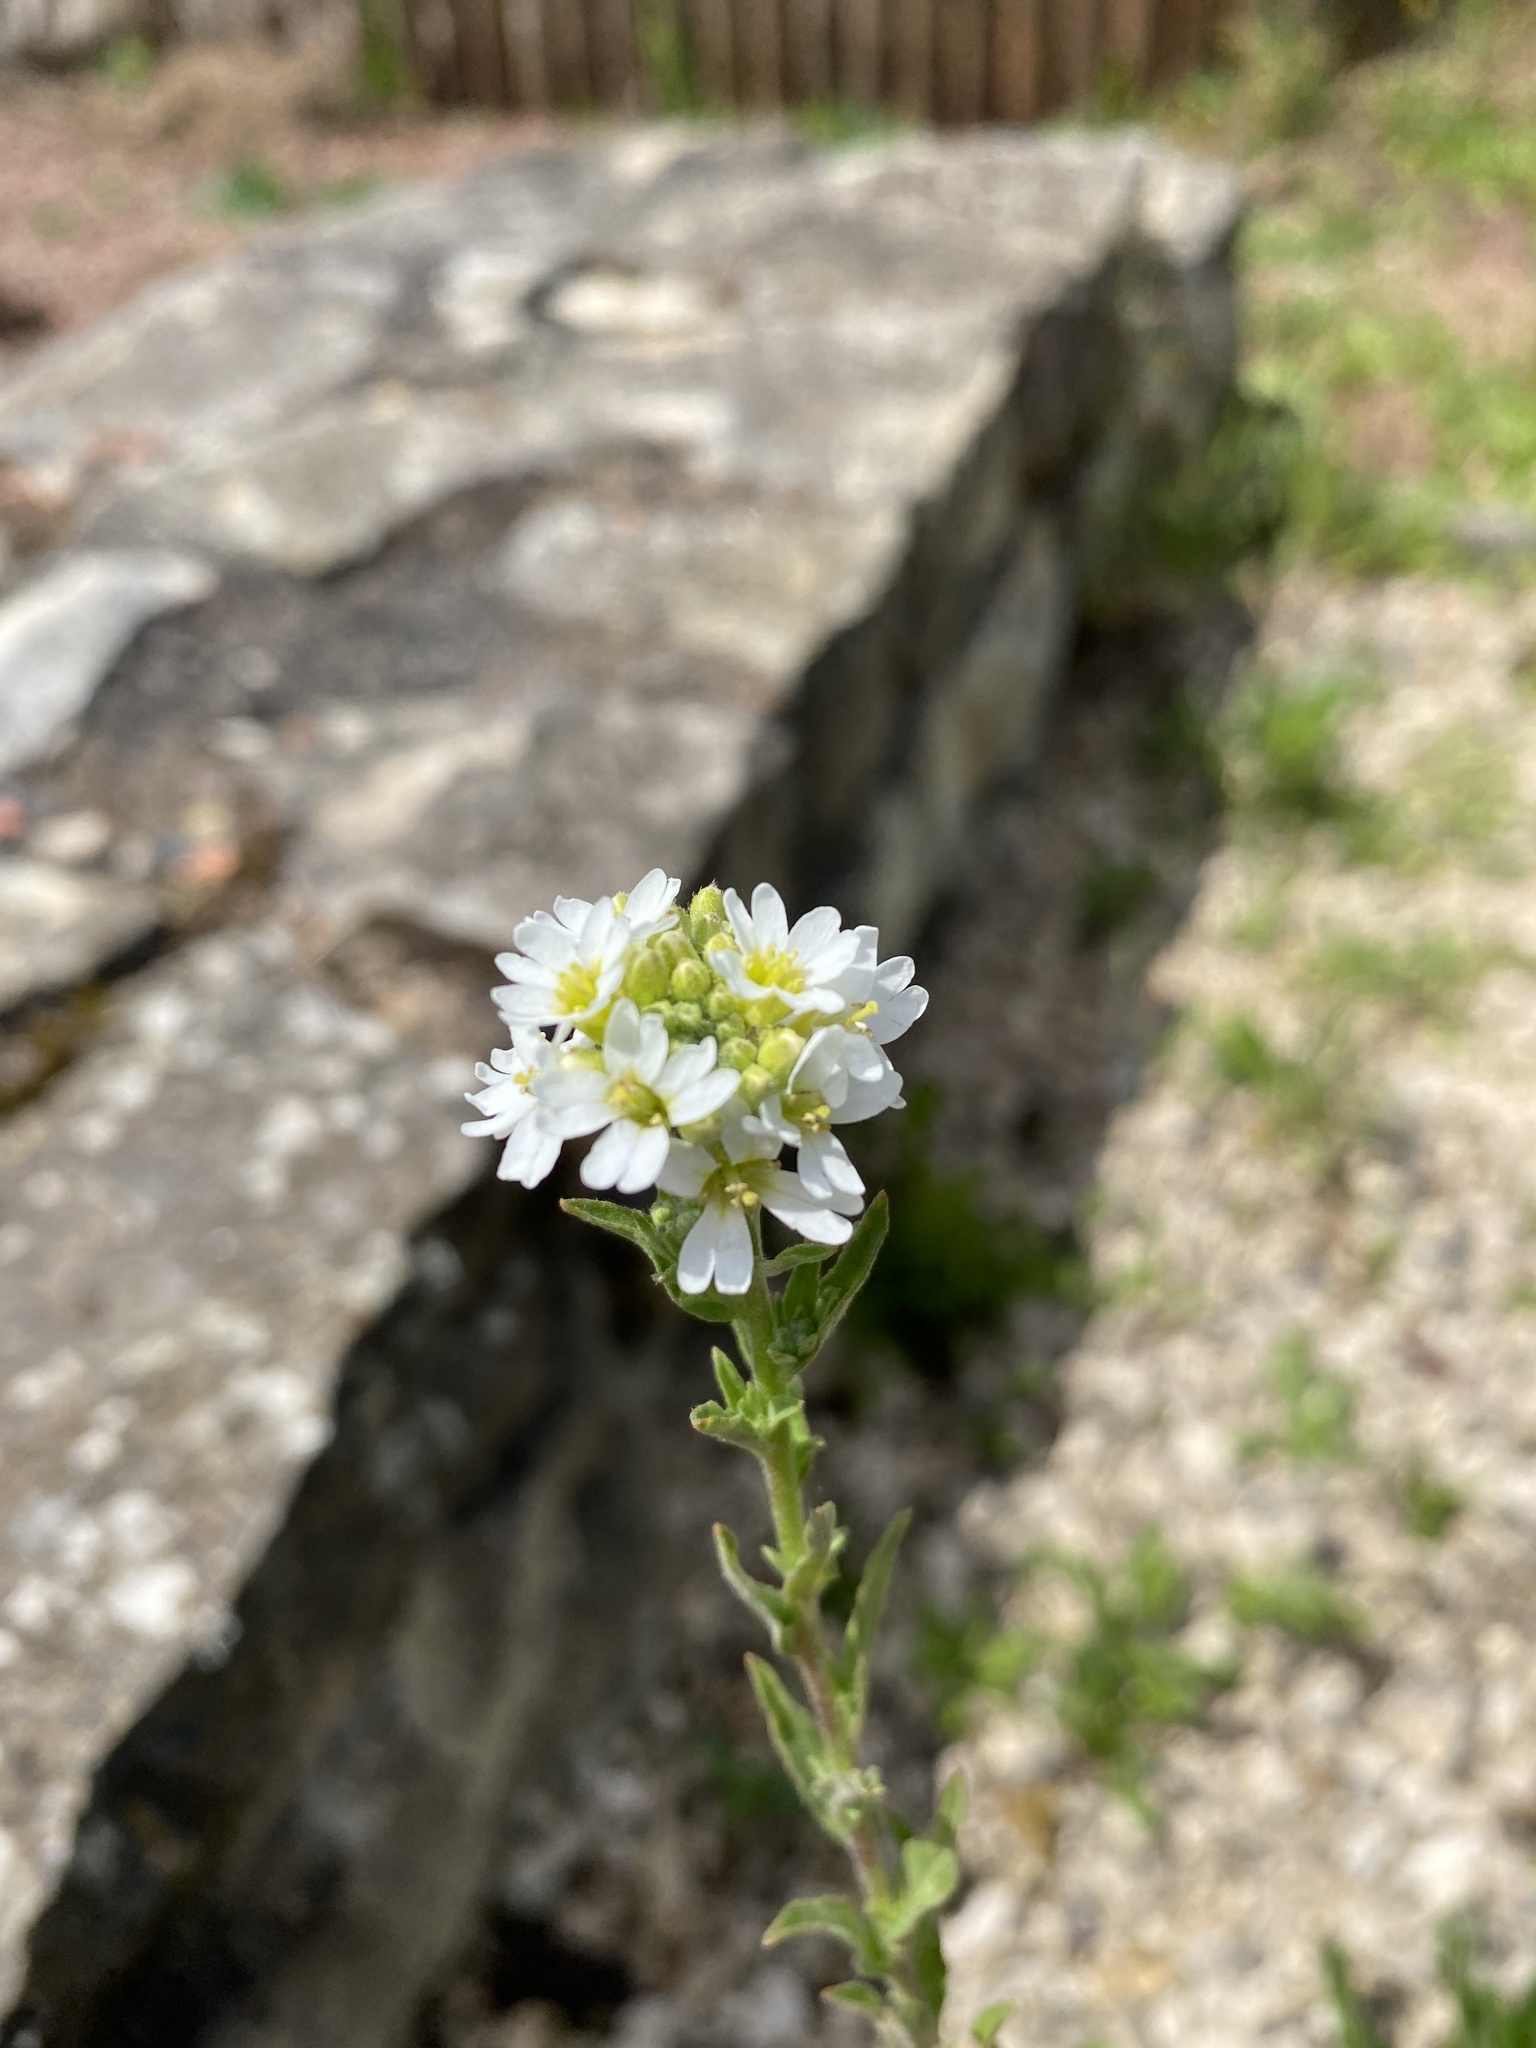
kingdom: Plantae
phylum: Tracheophyta
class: Magnoliopsida
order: Brassicales
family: Brassicaceae
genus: Berteroa
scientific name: Berteroa incana
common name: Hoary alison
